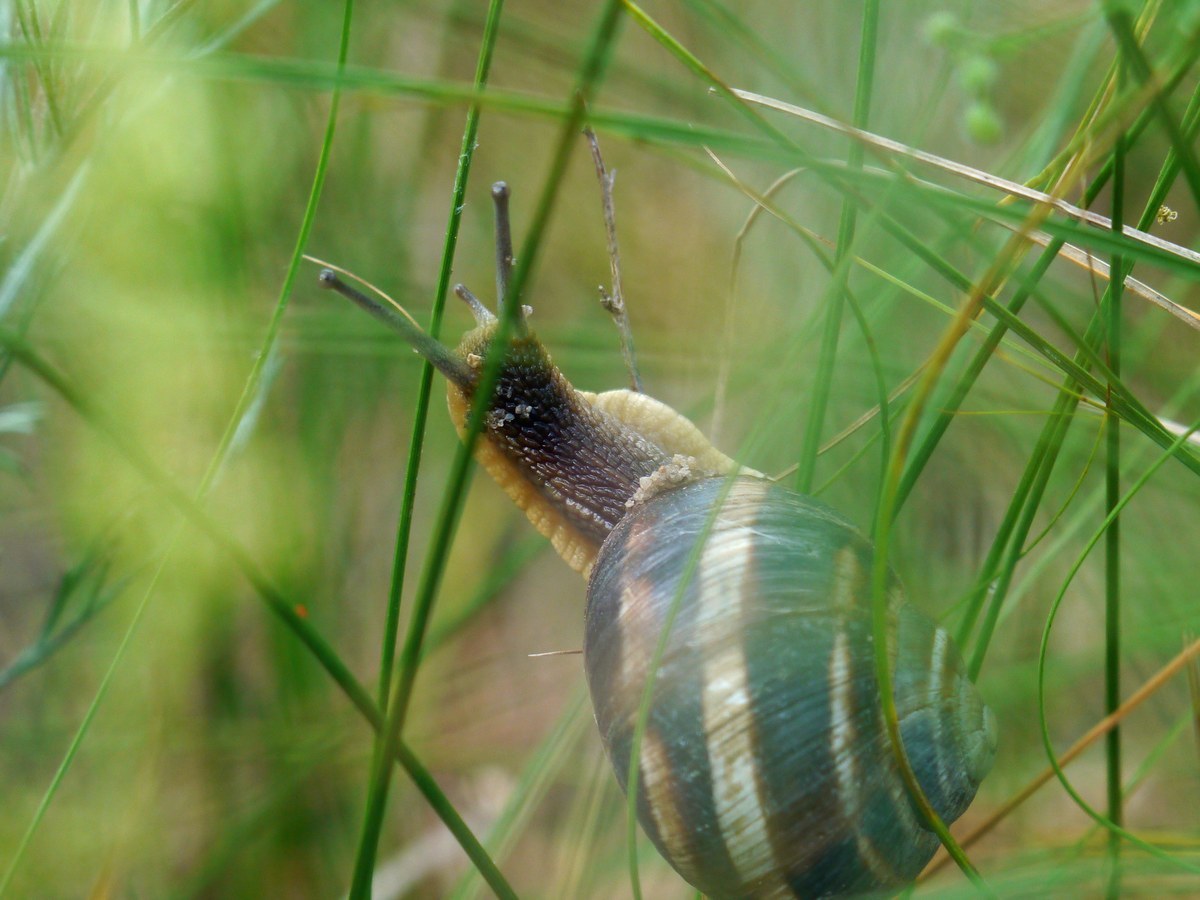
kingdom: Animalia
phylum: Mollusca
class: Gastropoda
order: Stylommatophora
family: Helicidae
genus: Helix
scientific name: Helix albescens
